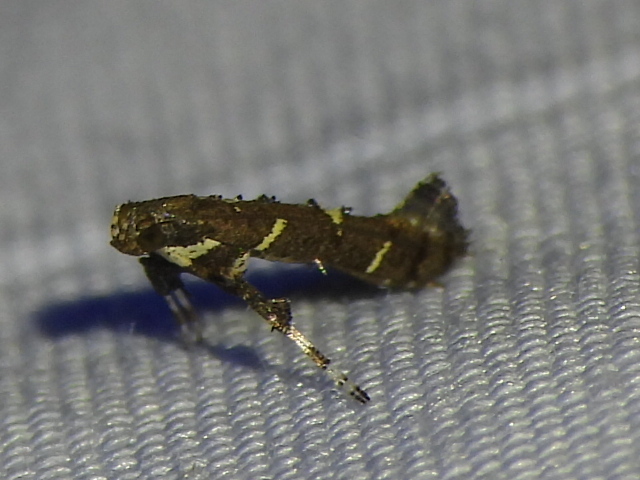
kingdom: Animalia
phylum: Arthropoda
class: Insecta
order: Lepidoptera
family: Gracillariidae
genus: Caloptilia
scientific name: Caloptilia triadicae
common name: Tallow leaf roller
